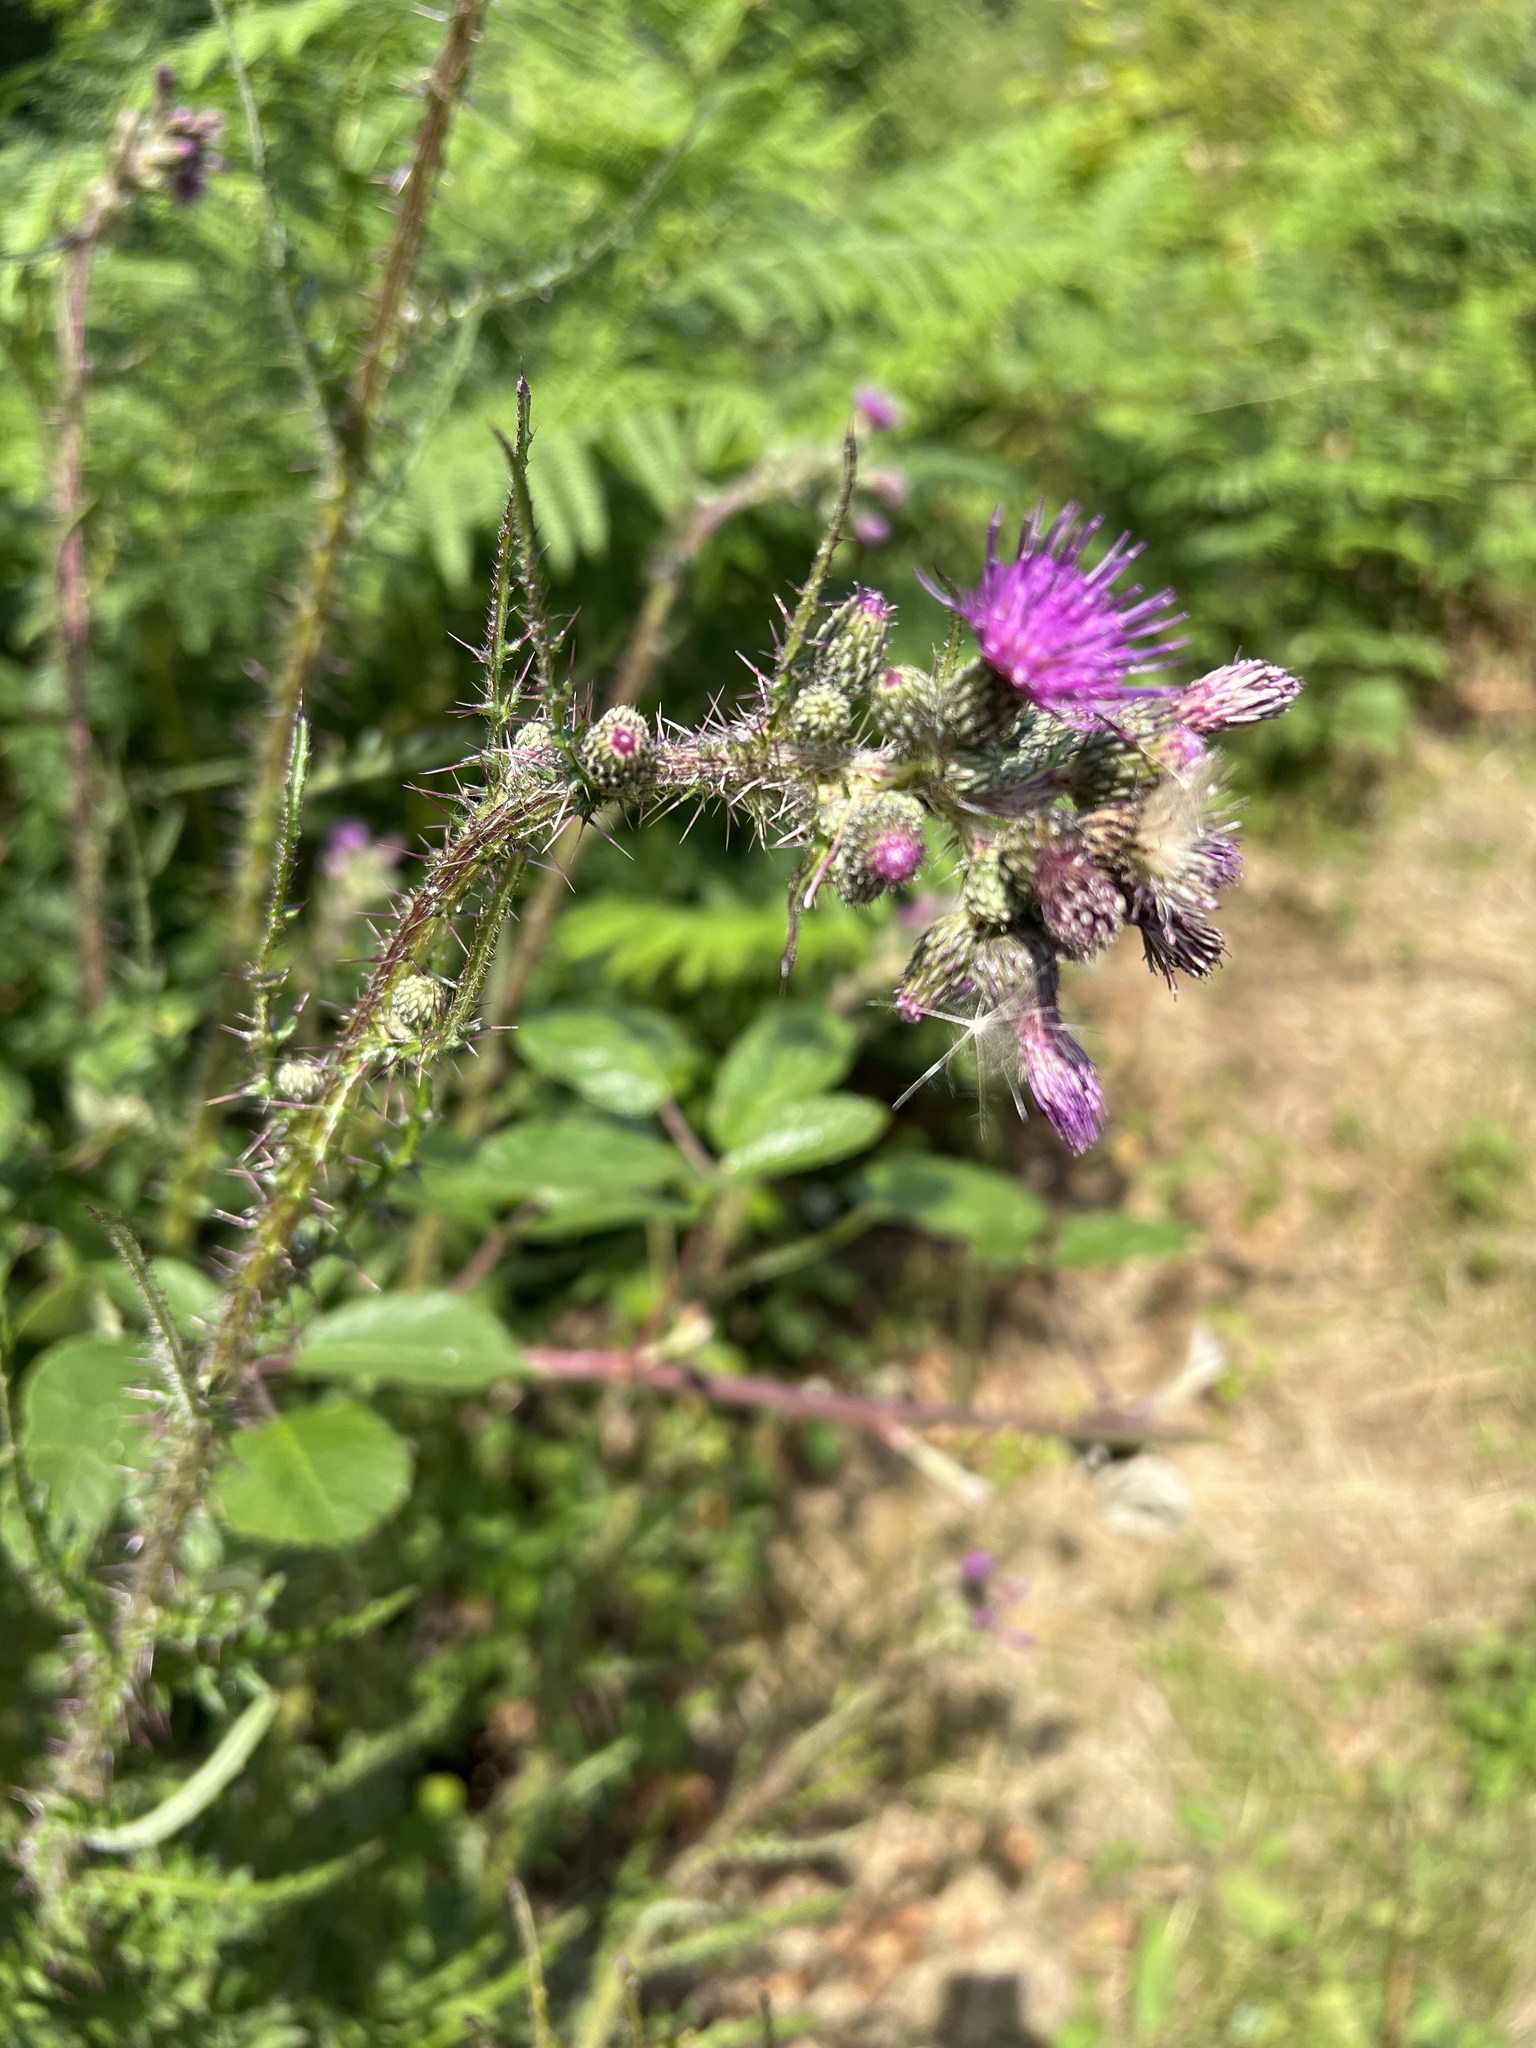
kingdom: Plantae
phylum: Tracheophyta
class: Magnoliopsida
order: Asterales
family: Asteraceae
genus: Cirsium
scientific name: Cirsium palustre
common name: Marsh thistle
